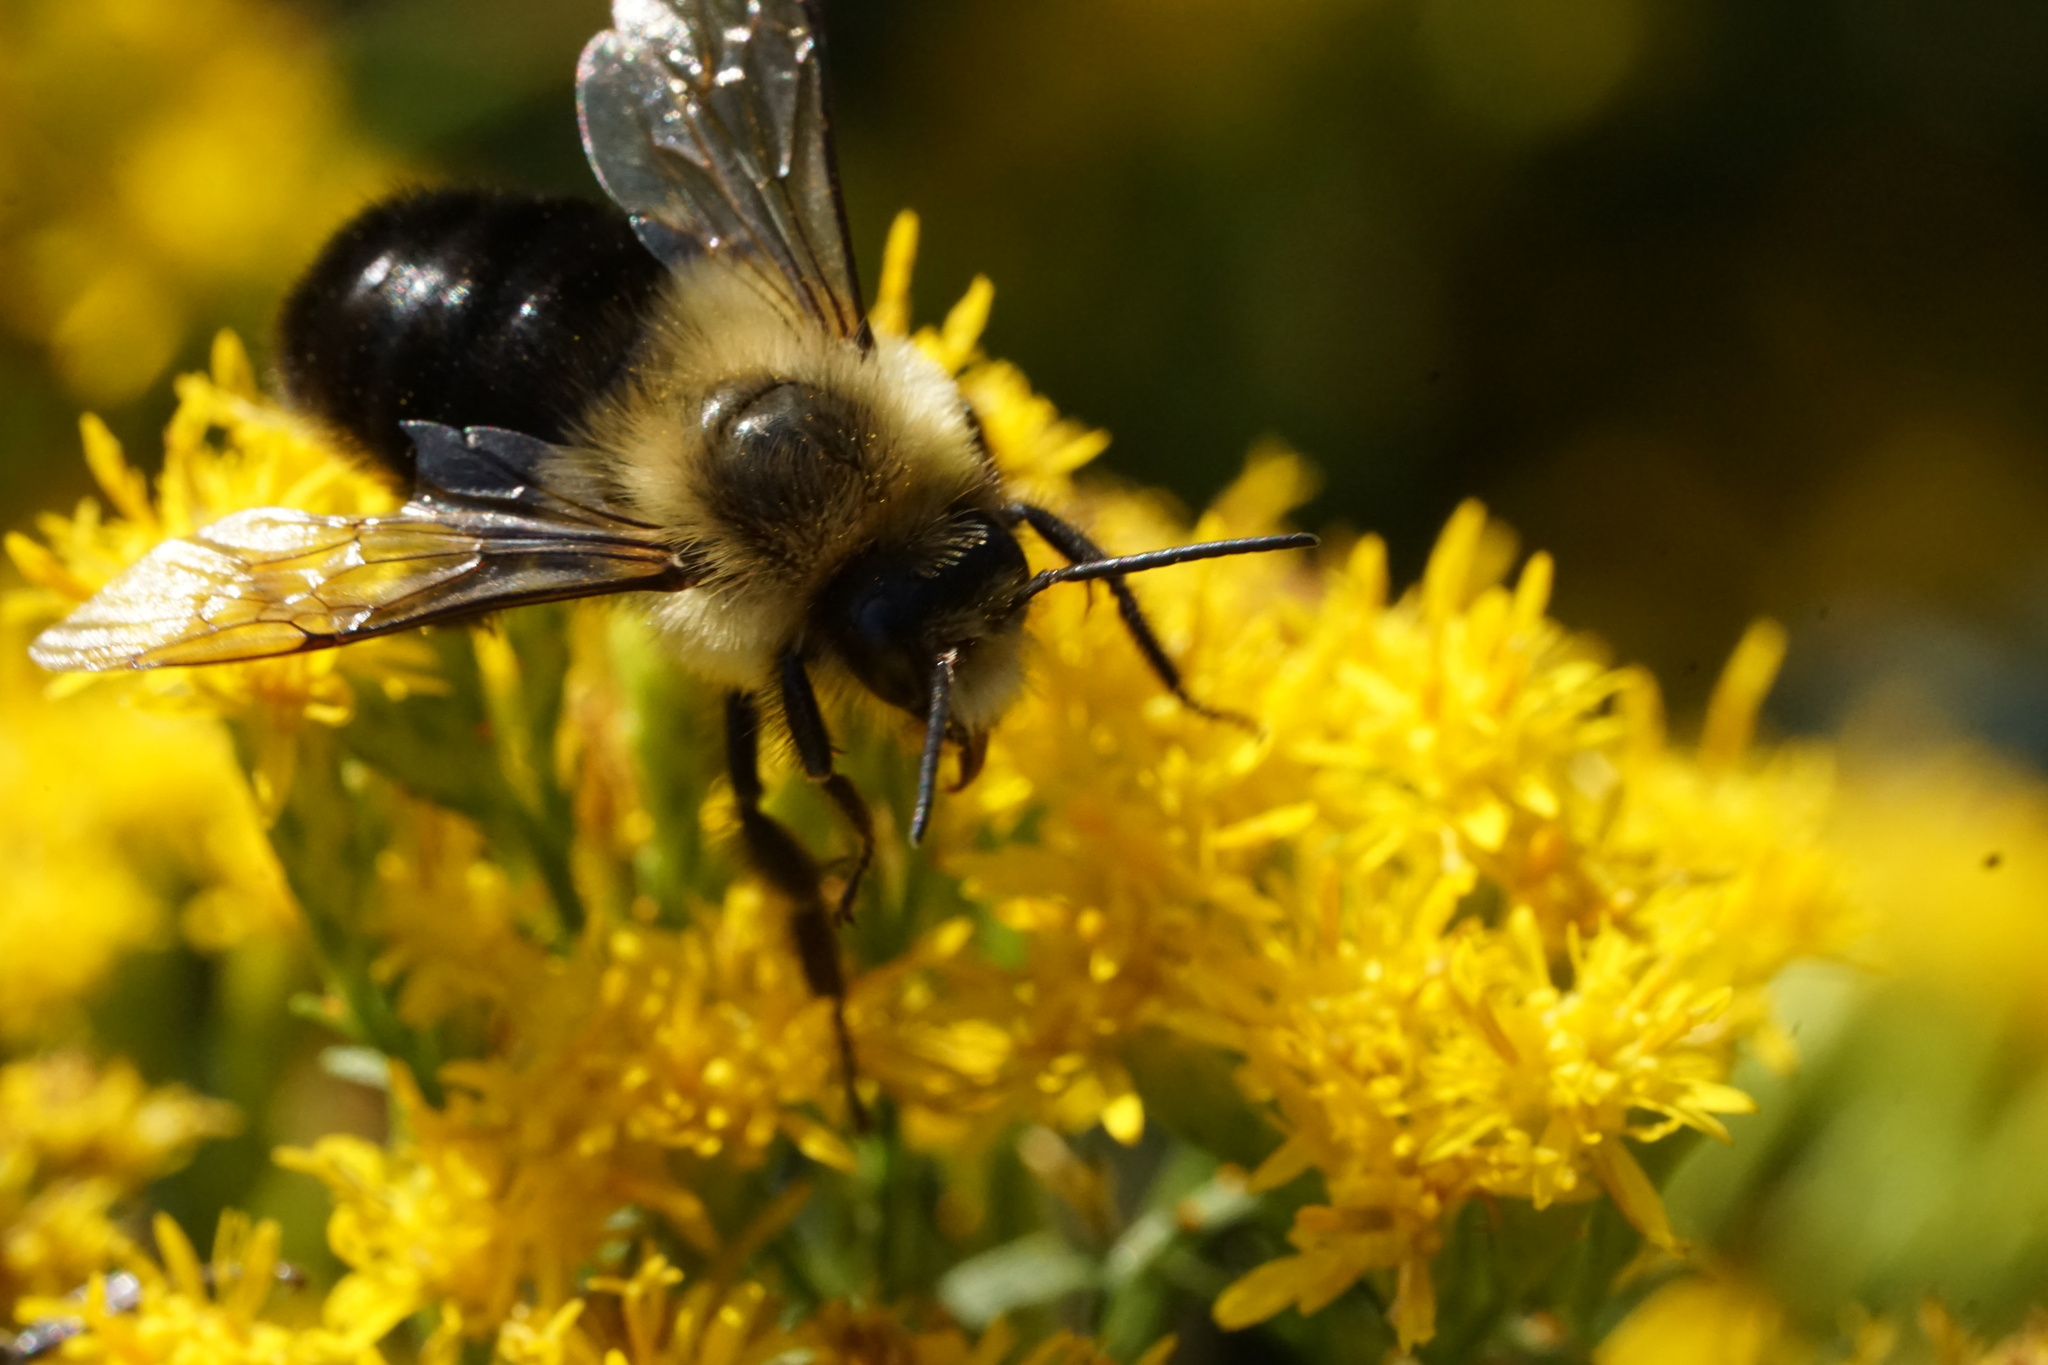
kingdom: Animalia
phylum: Arthropoda
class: Insecta
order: Hymenoptera
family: Apidae
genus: Bombus
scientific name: Bombus impatiens
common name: Common eastern bumble bee
